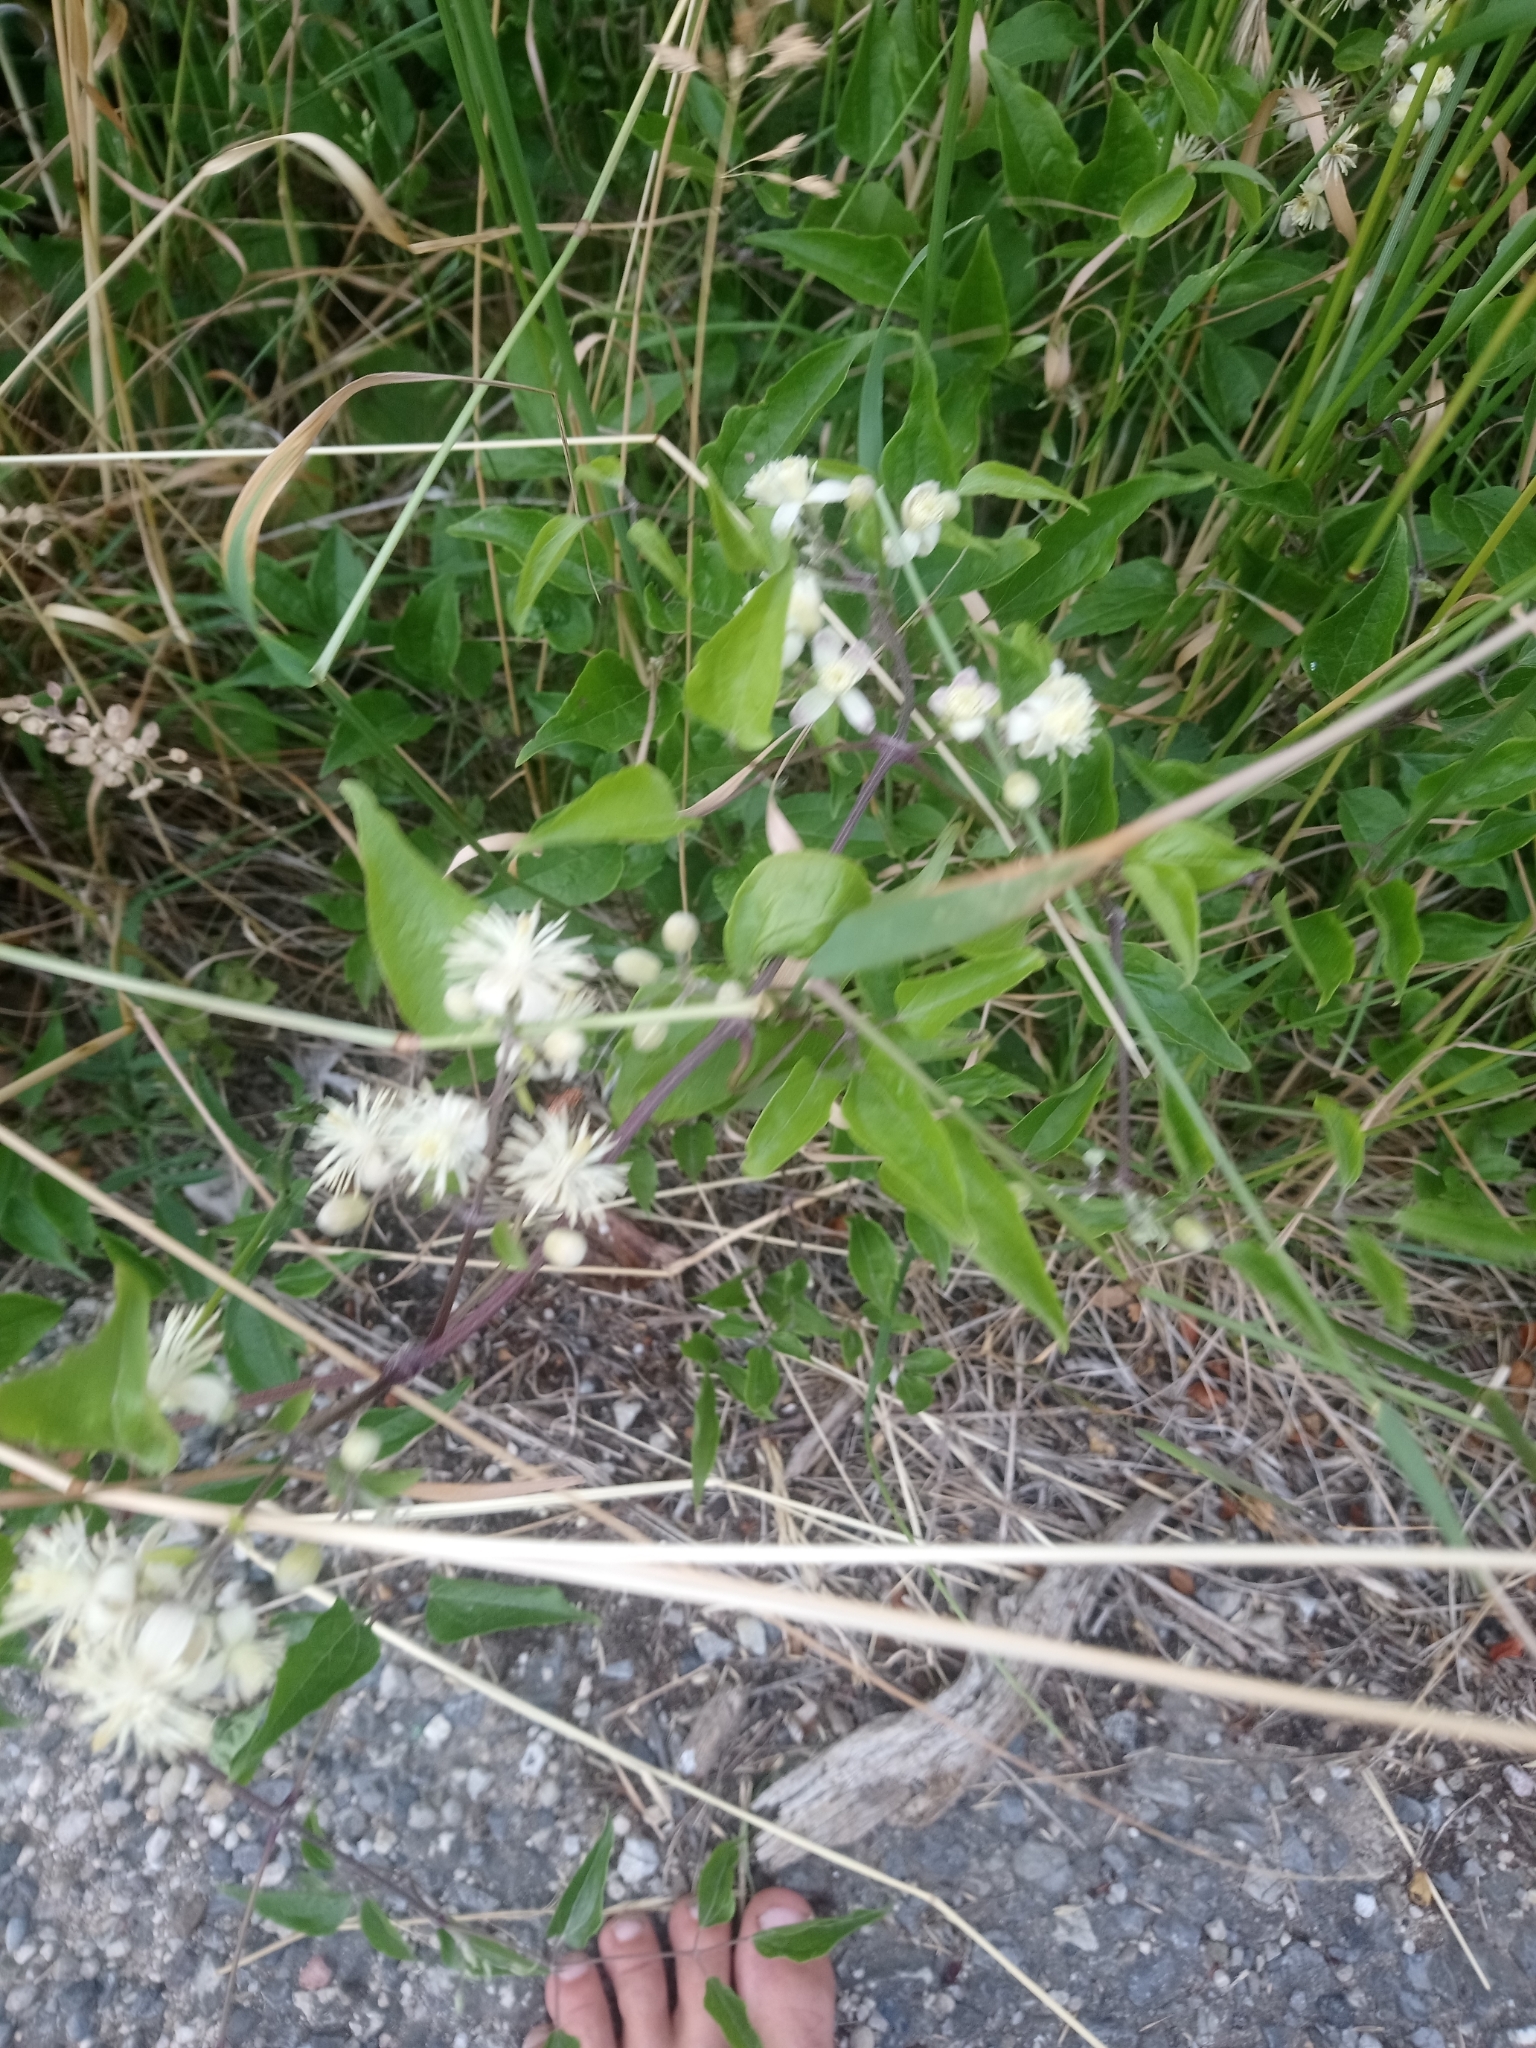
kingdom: Plantae
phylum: Tracheophyta
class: Magnoliopsida
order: Ranunculales
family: Ranunculaceae
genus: Clematis
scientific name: Clematis vitalba
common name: Evergreen clematis
